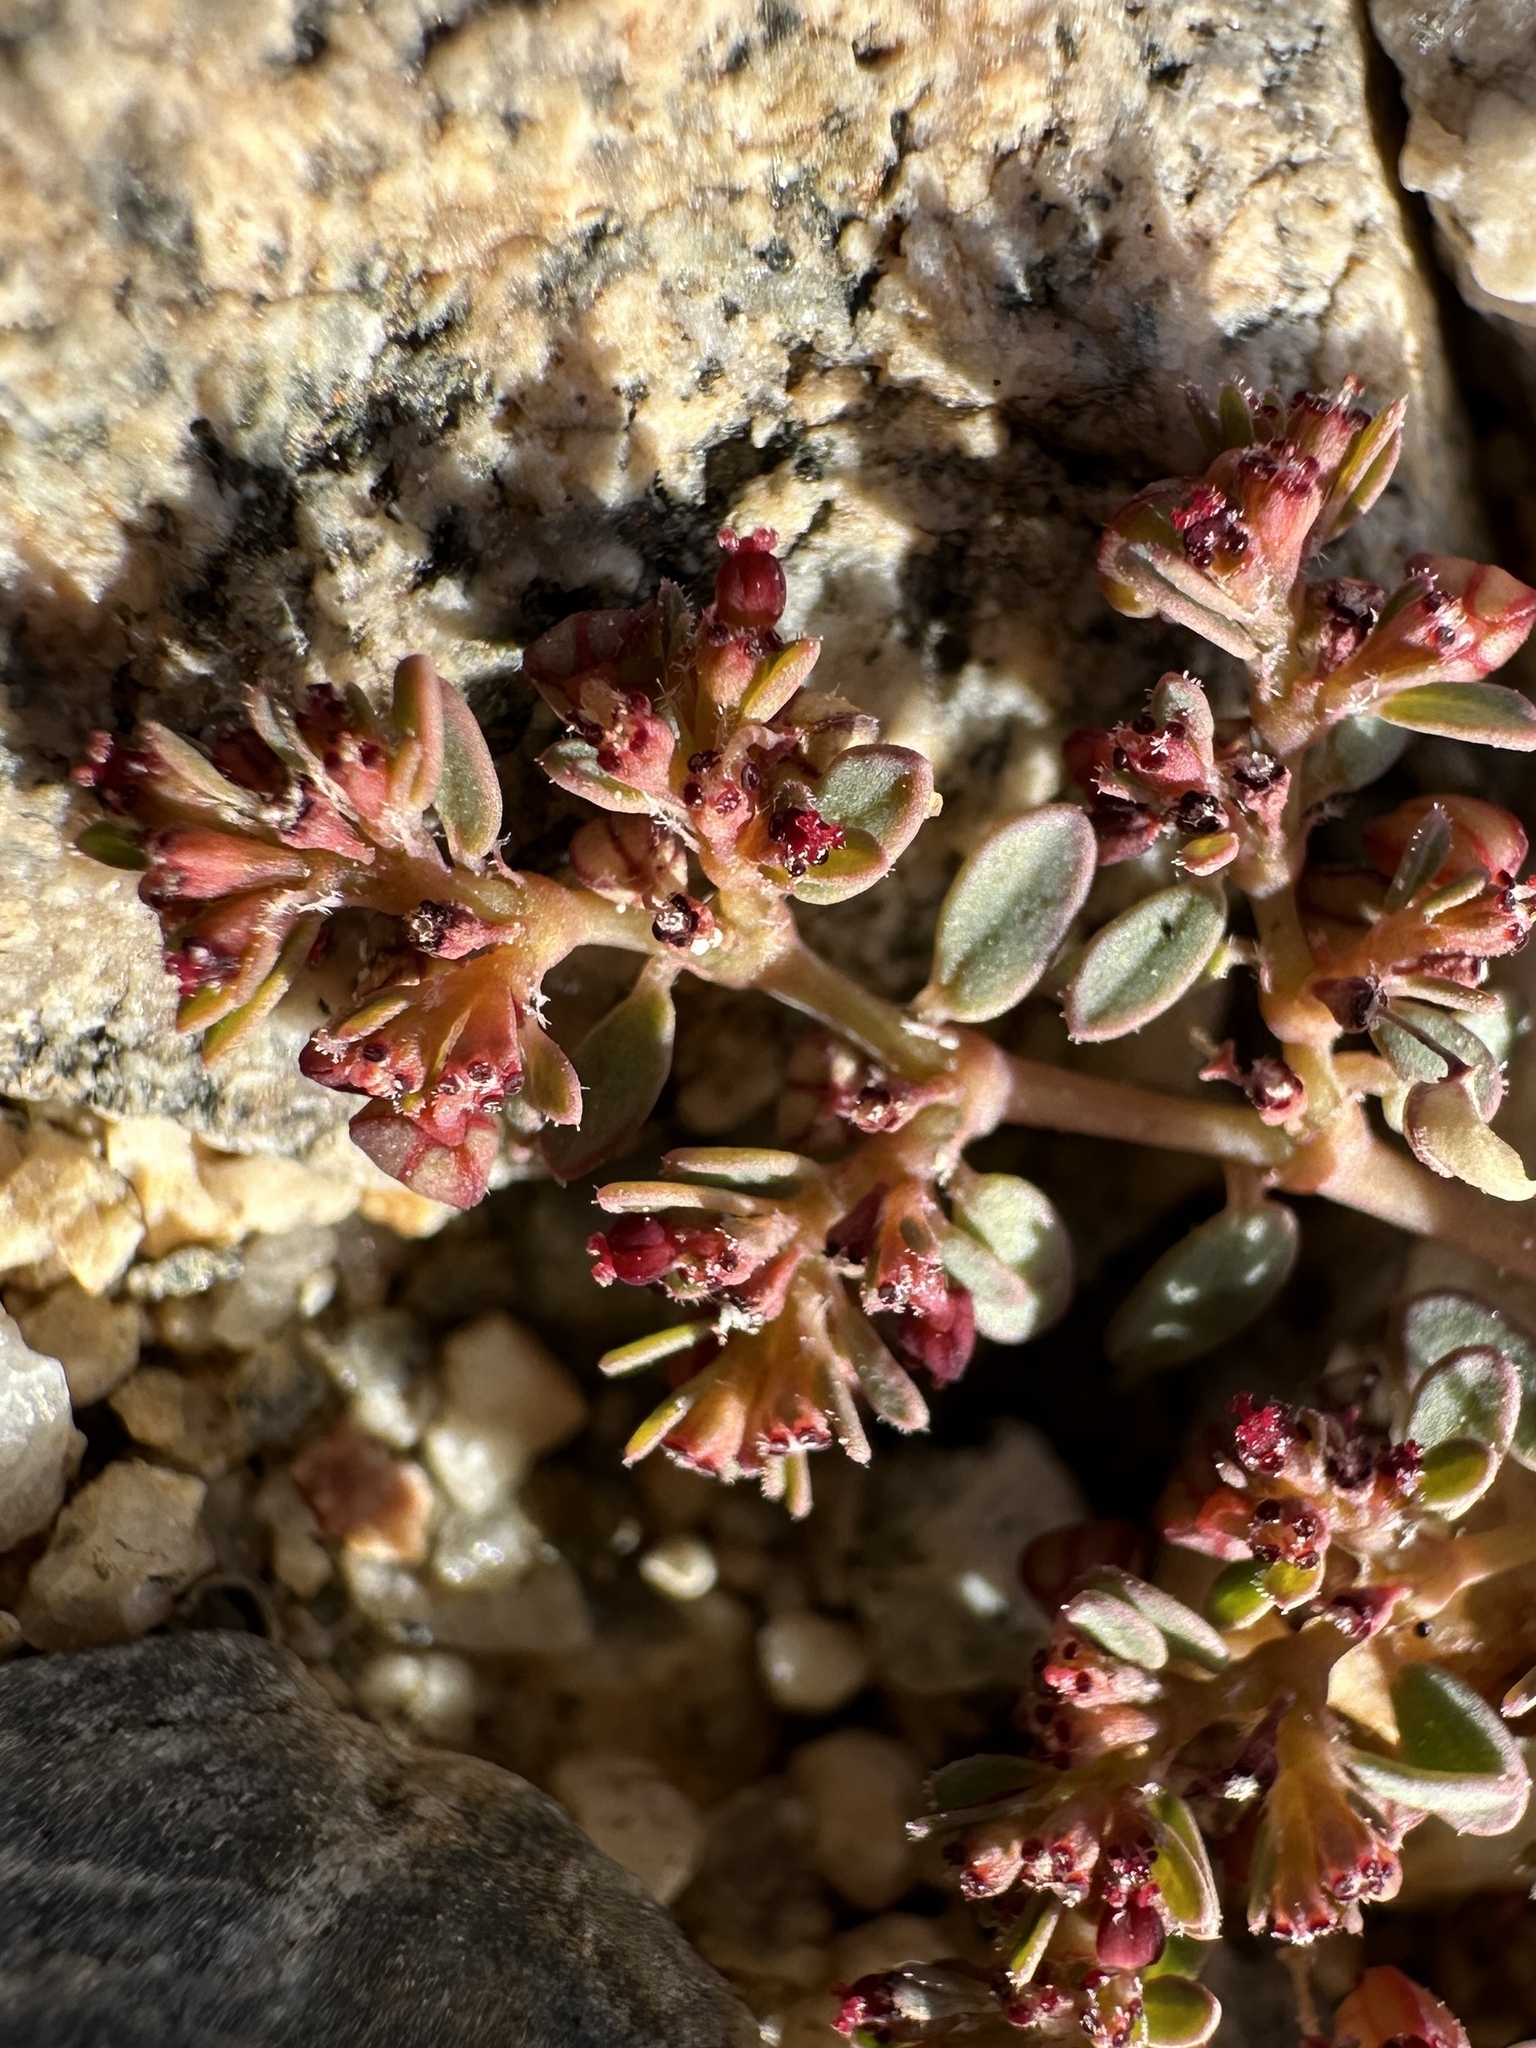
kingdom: Plantae
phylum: Tracheophyta
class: Magnoliopsida
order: Malpighiales
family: Euphorbiaceae
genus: Euphorbia
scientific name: Euphorbia micromera
